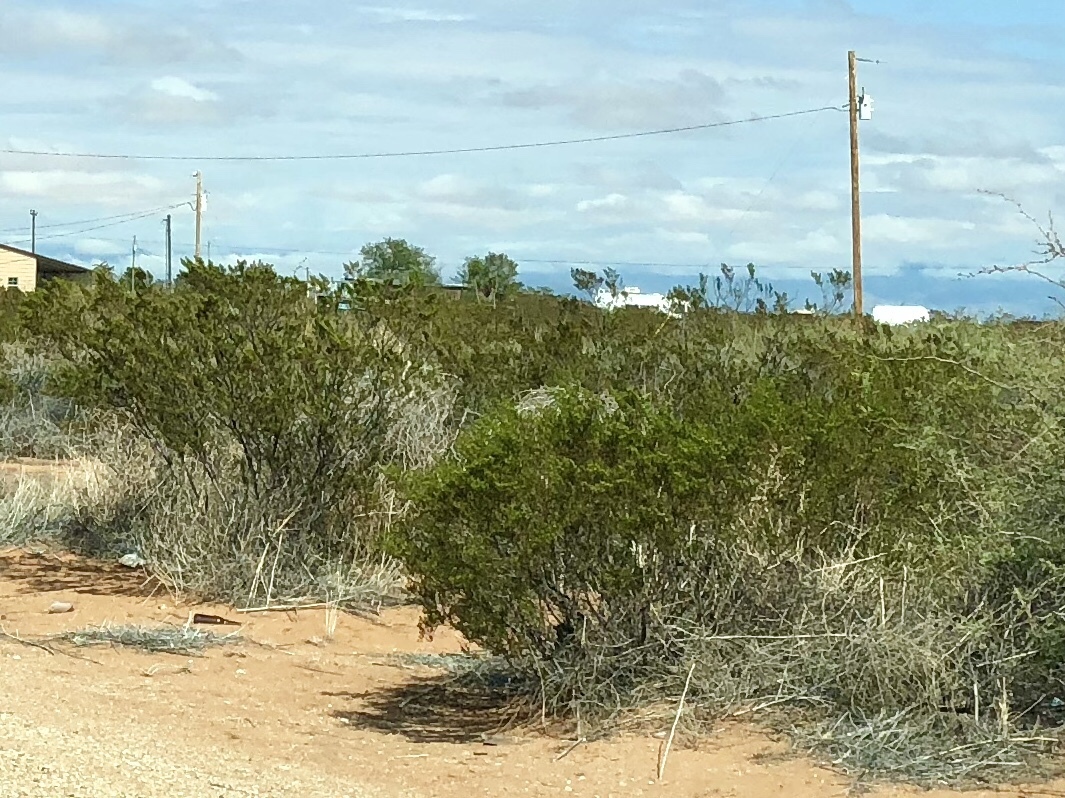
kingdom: Plantae
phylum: Tracheophyta
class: Magnoliopsida
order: Zygophyllales
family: Zygophyllaceae
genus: Larrea
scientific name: Larrea tridentata
